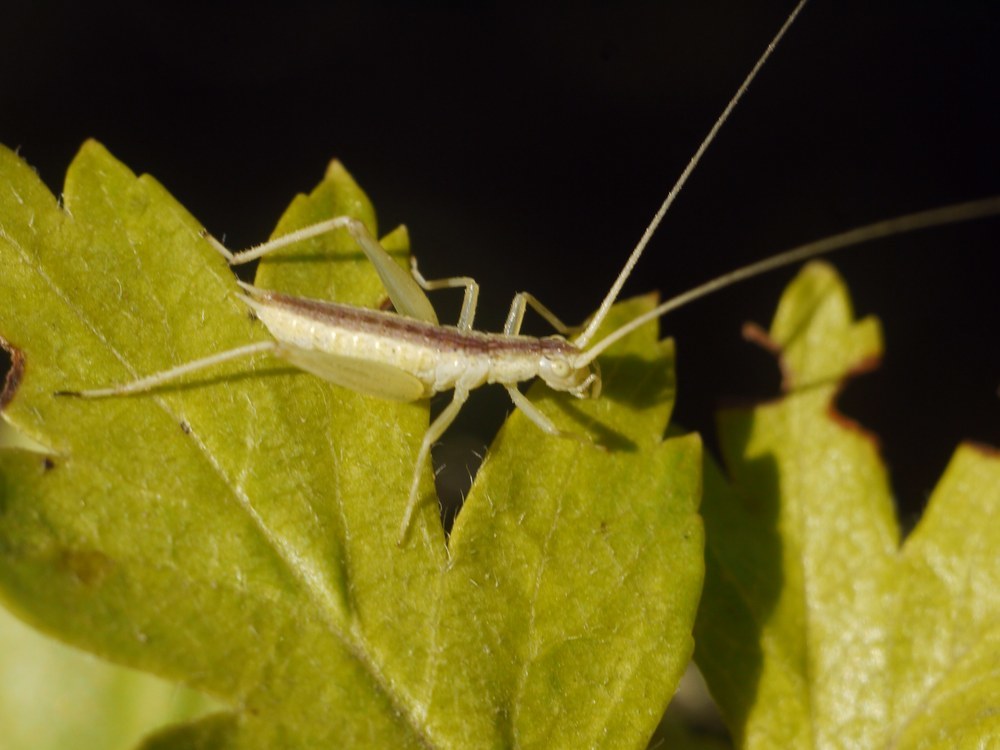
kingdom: Animalia
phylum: Arthropoda
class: Insecta
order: Orthoptera
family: Gryllidae
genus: Oecanthus
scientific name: Oecanthus pellucens
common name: Tree-cricket
